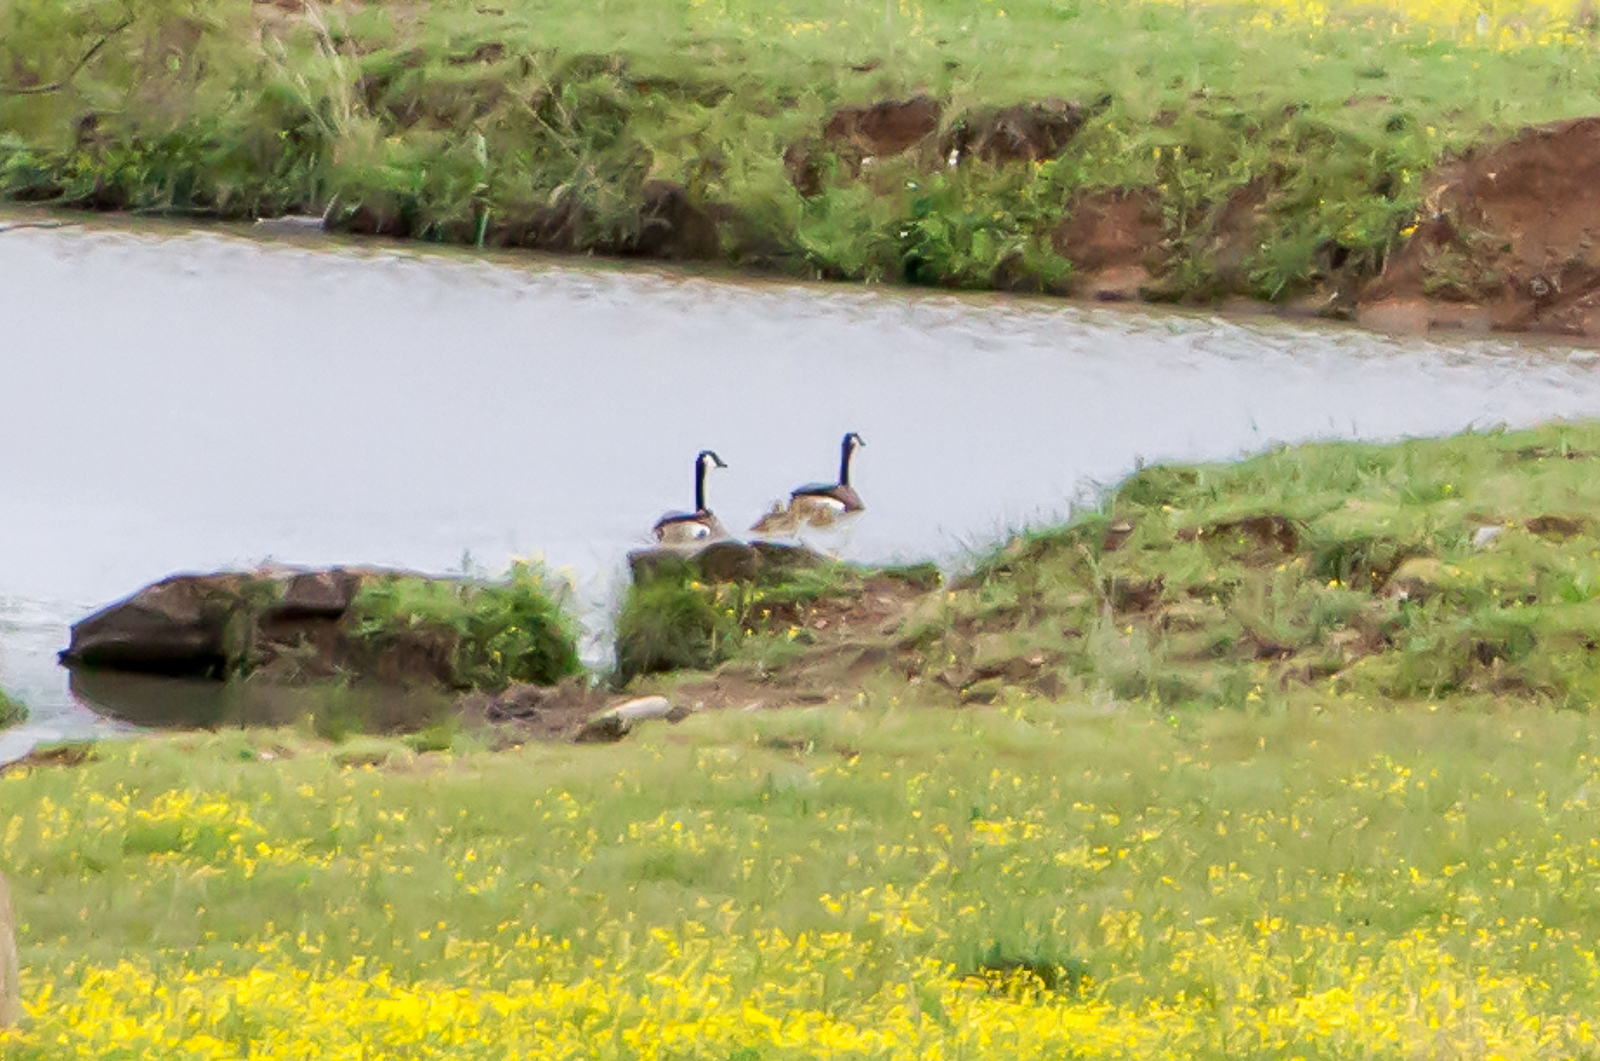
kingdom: Animalia
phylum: Chordata
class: Aves
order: Anseriformes
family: Anatidae
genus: Branta
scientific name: Branta canadensis
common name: Canada goose
